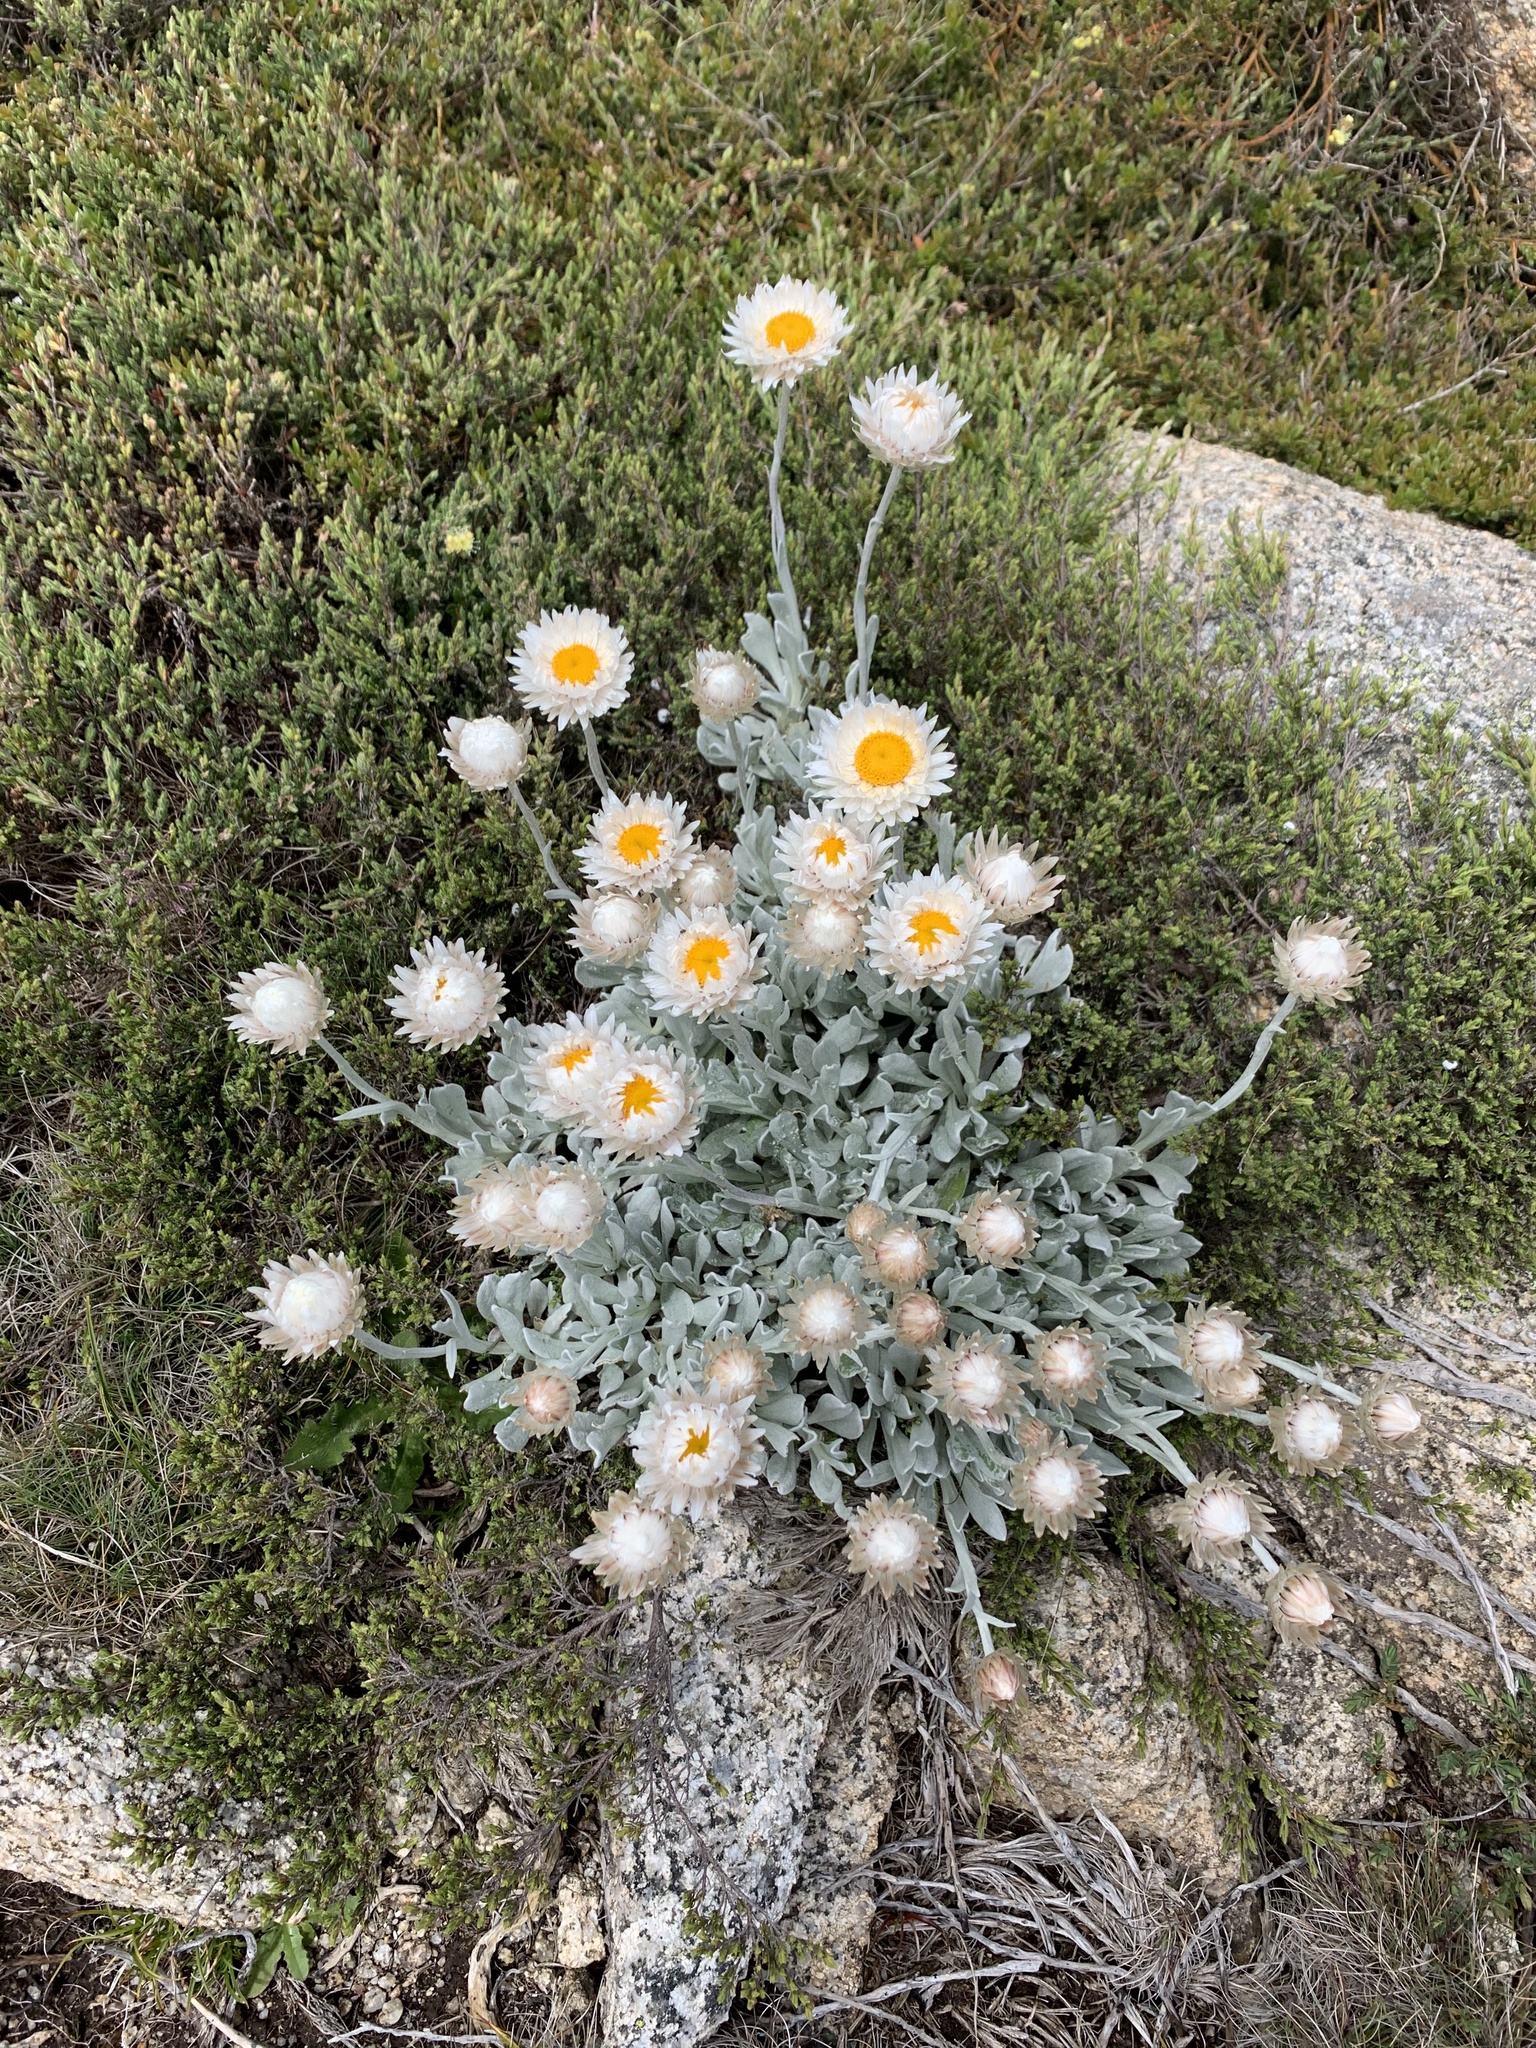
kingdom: Plantae
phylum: Tracheophyta
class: Magnoliopsida
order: Asterales
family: Asteraceae
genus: Leucochrysum
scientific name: Leucochrysum alpinum
